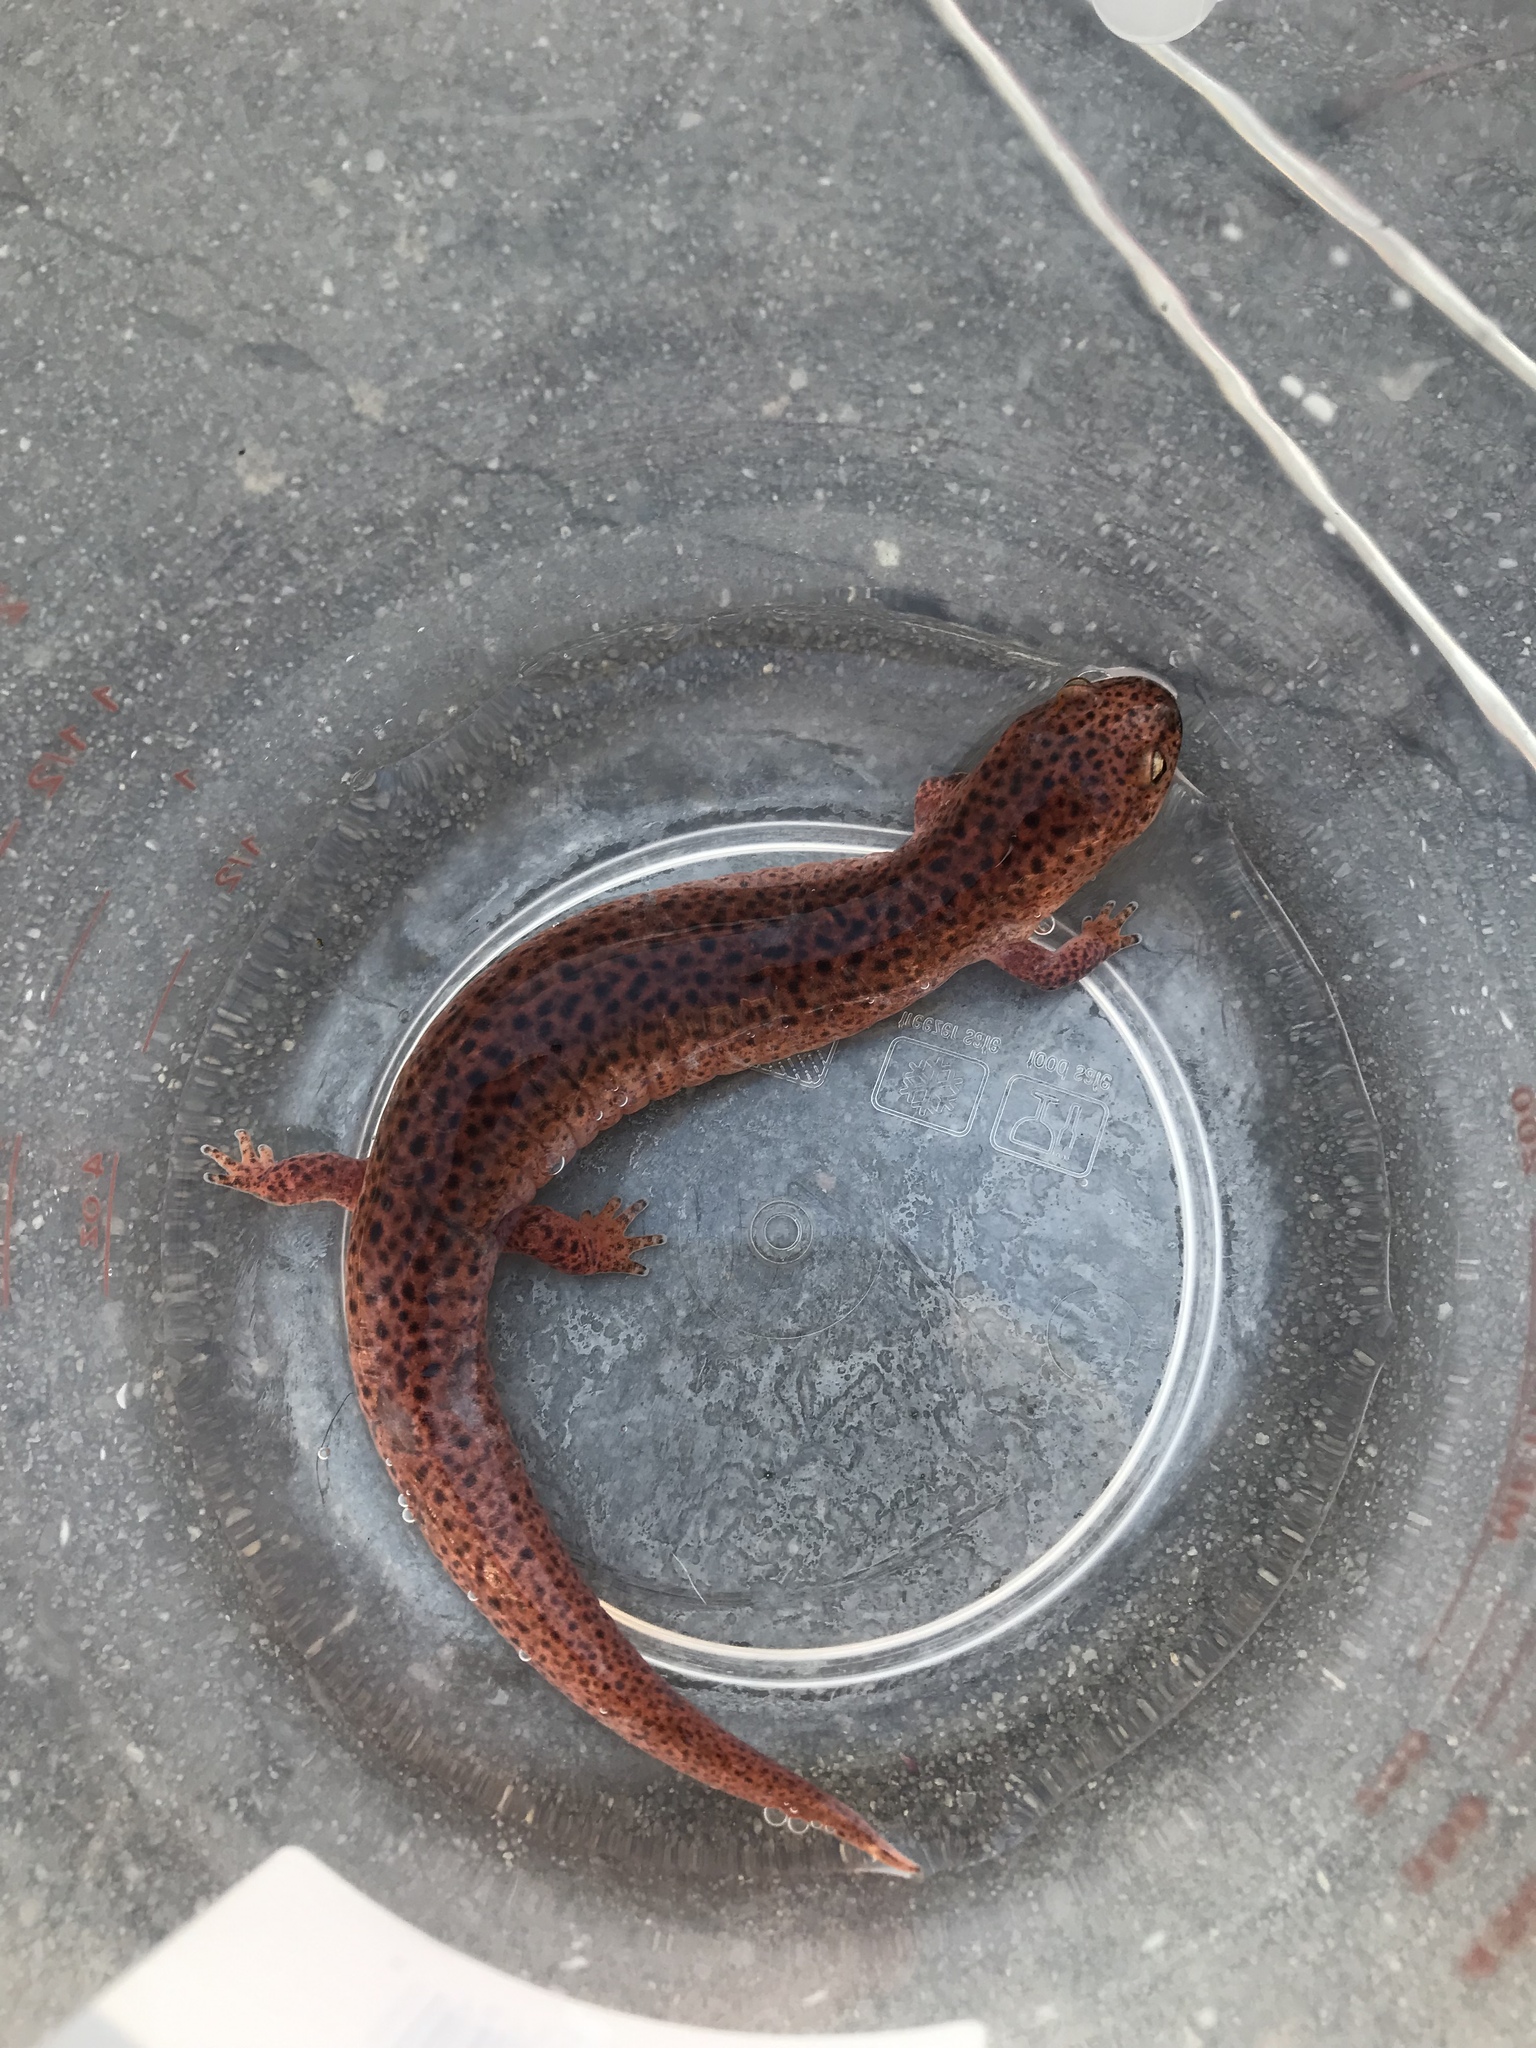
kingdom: Animalia
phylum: Chordata
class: Amphibia
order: Caudata
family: Plethodontidae
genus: Pseudotriton
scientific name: Pseudotriton ruber
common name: Red salamander
